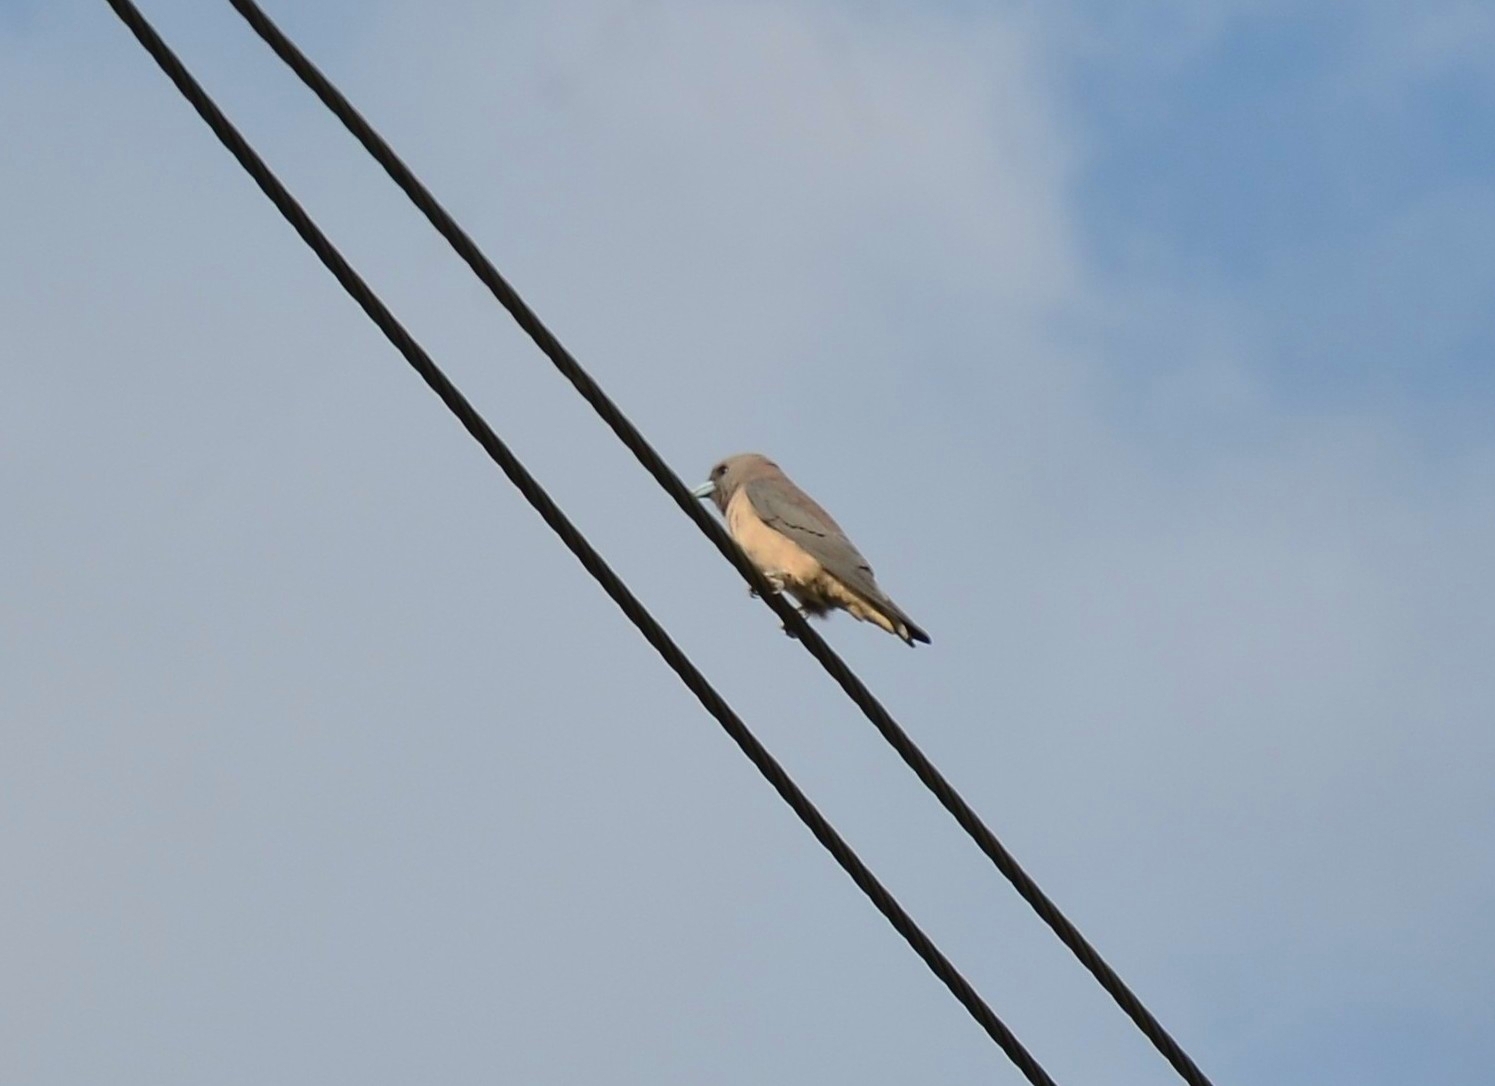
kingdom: Animalia
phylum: Chordata
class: Aves
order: Passeriformes
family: Artamidae
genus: Artamus
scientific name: Artamus fuscus
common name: Ashy woodswallow
